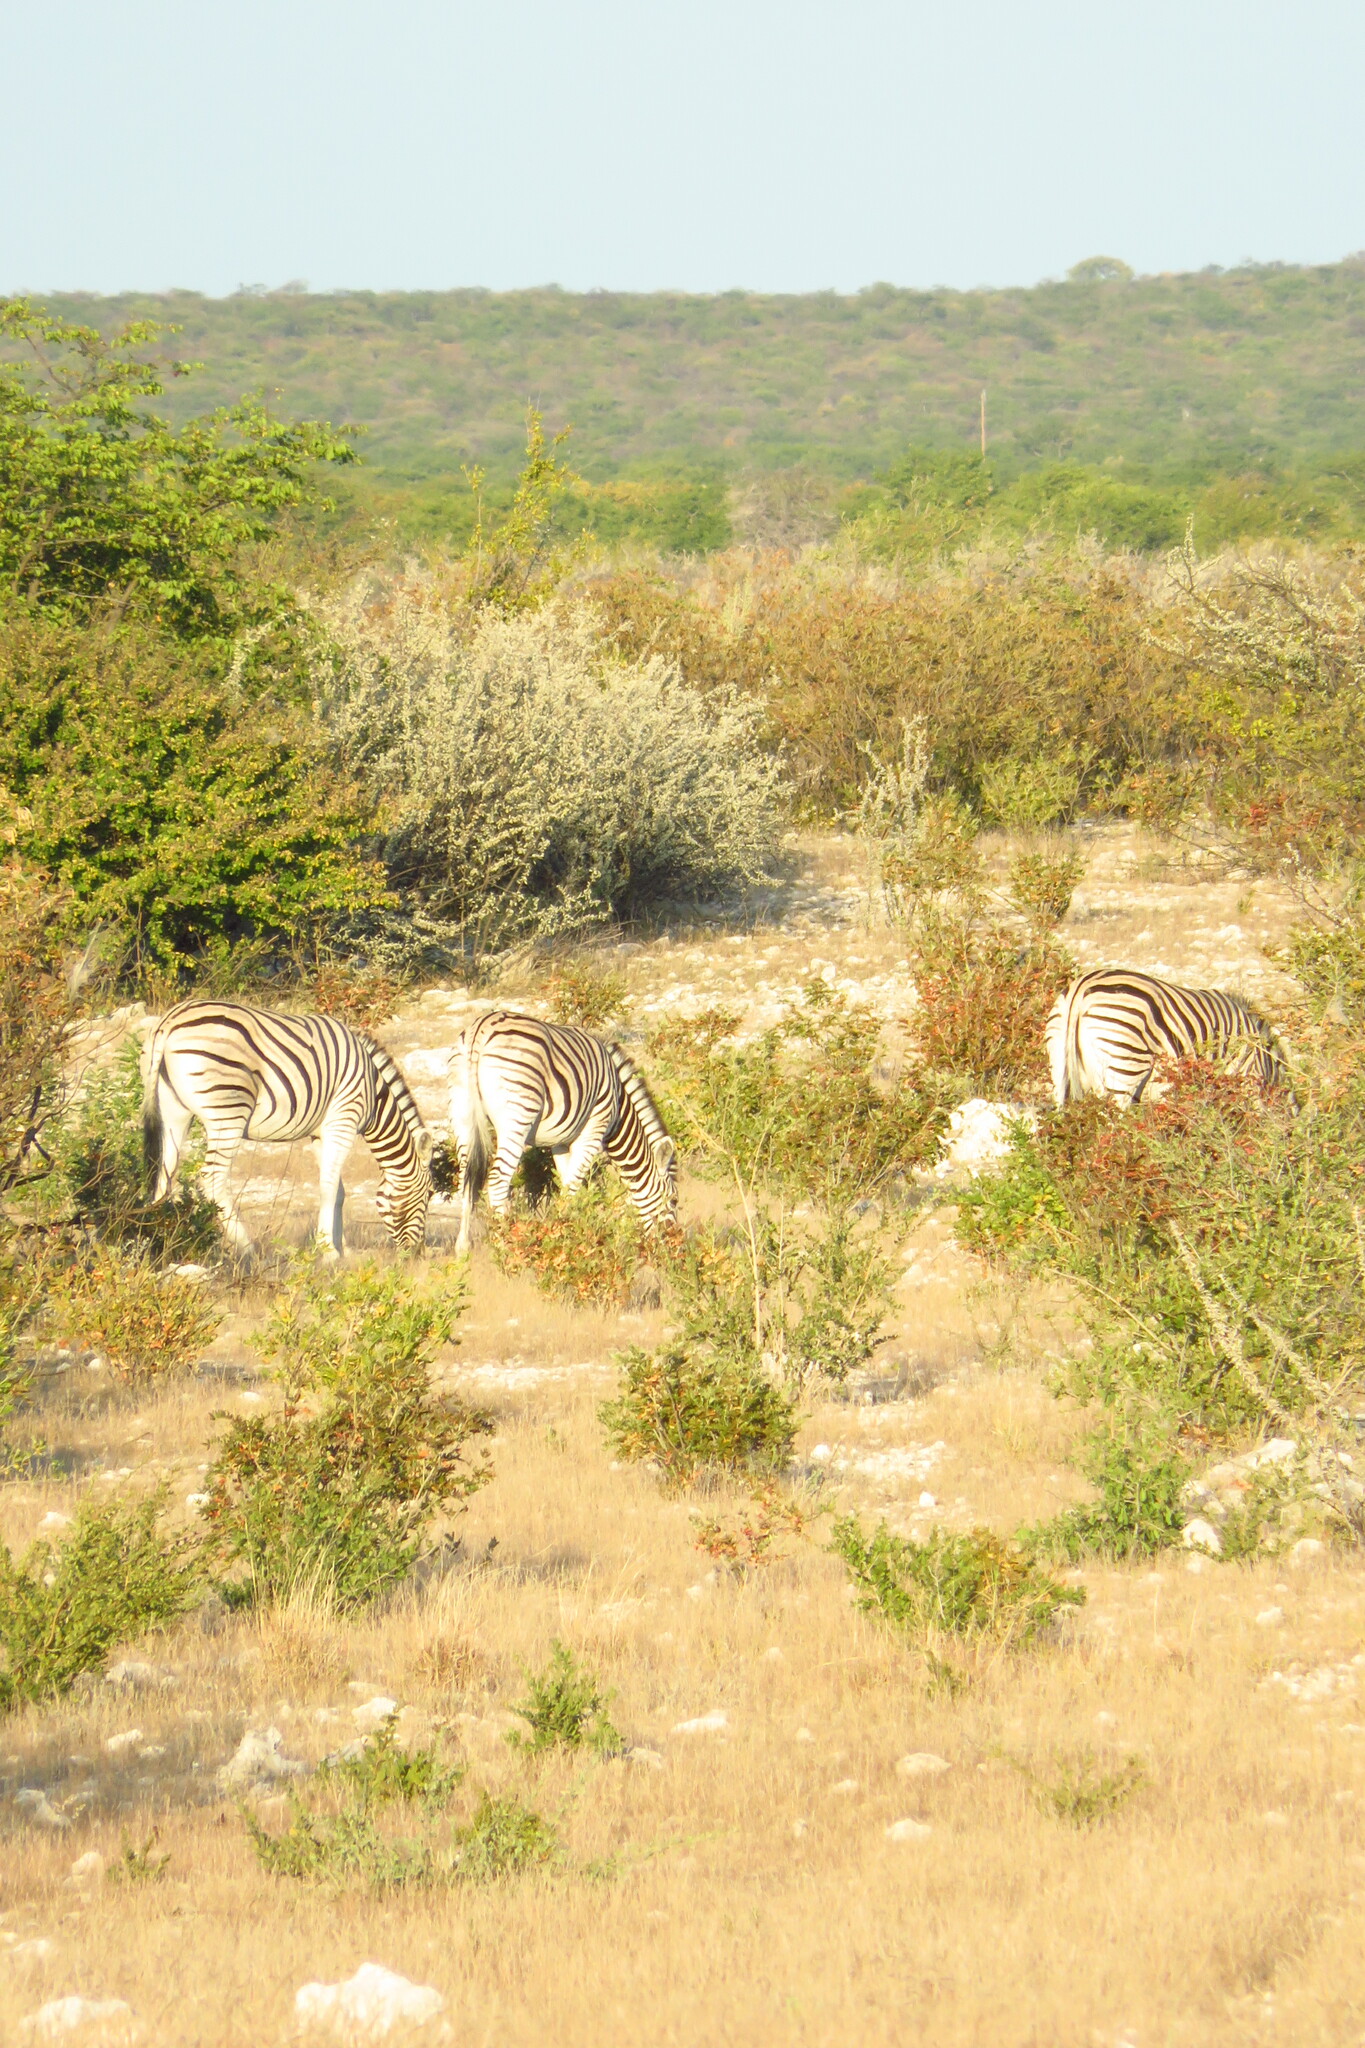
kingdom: Animalia
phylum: Chordata
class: Mammalia
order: Perissodactyla
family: Equidae
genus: Equus
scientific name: Equus quagga
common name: Plains zebra
